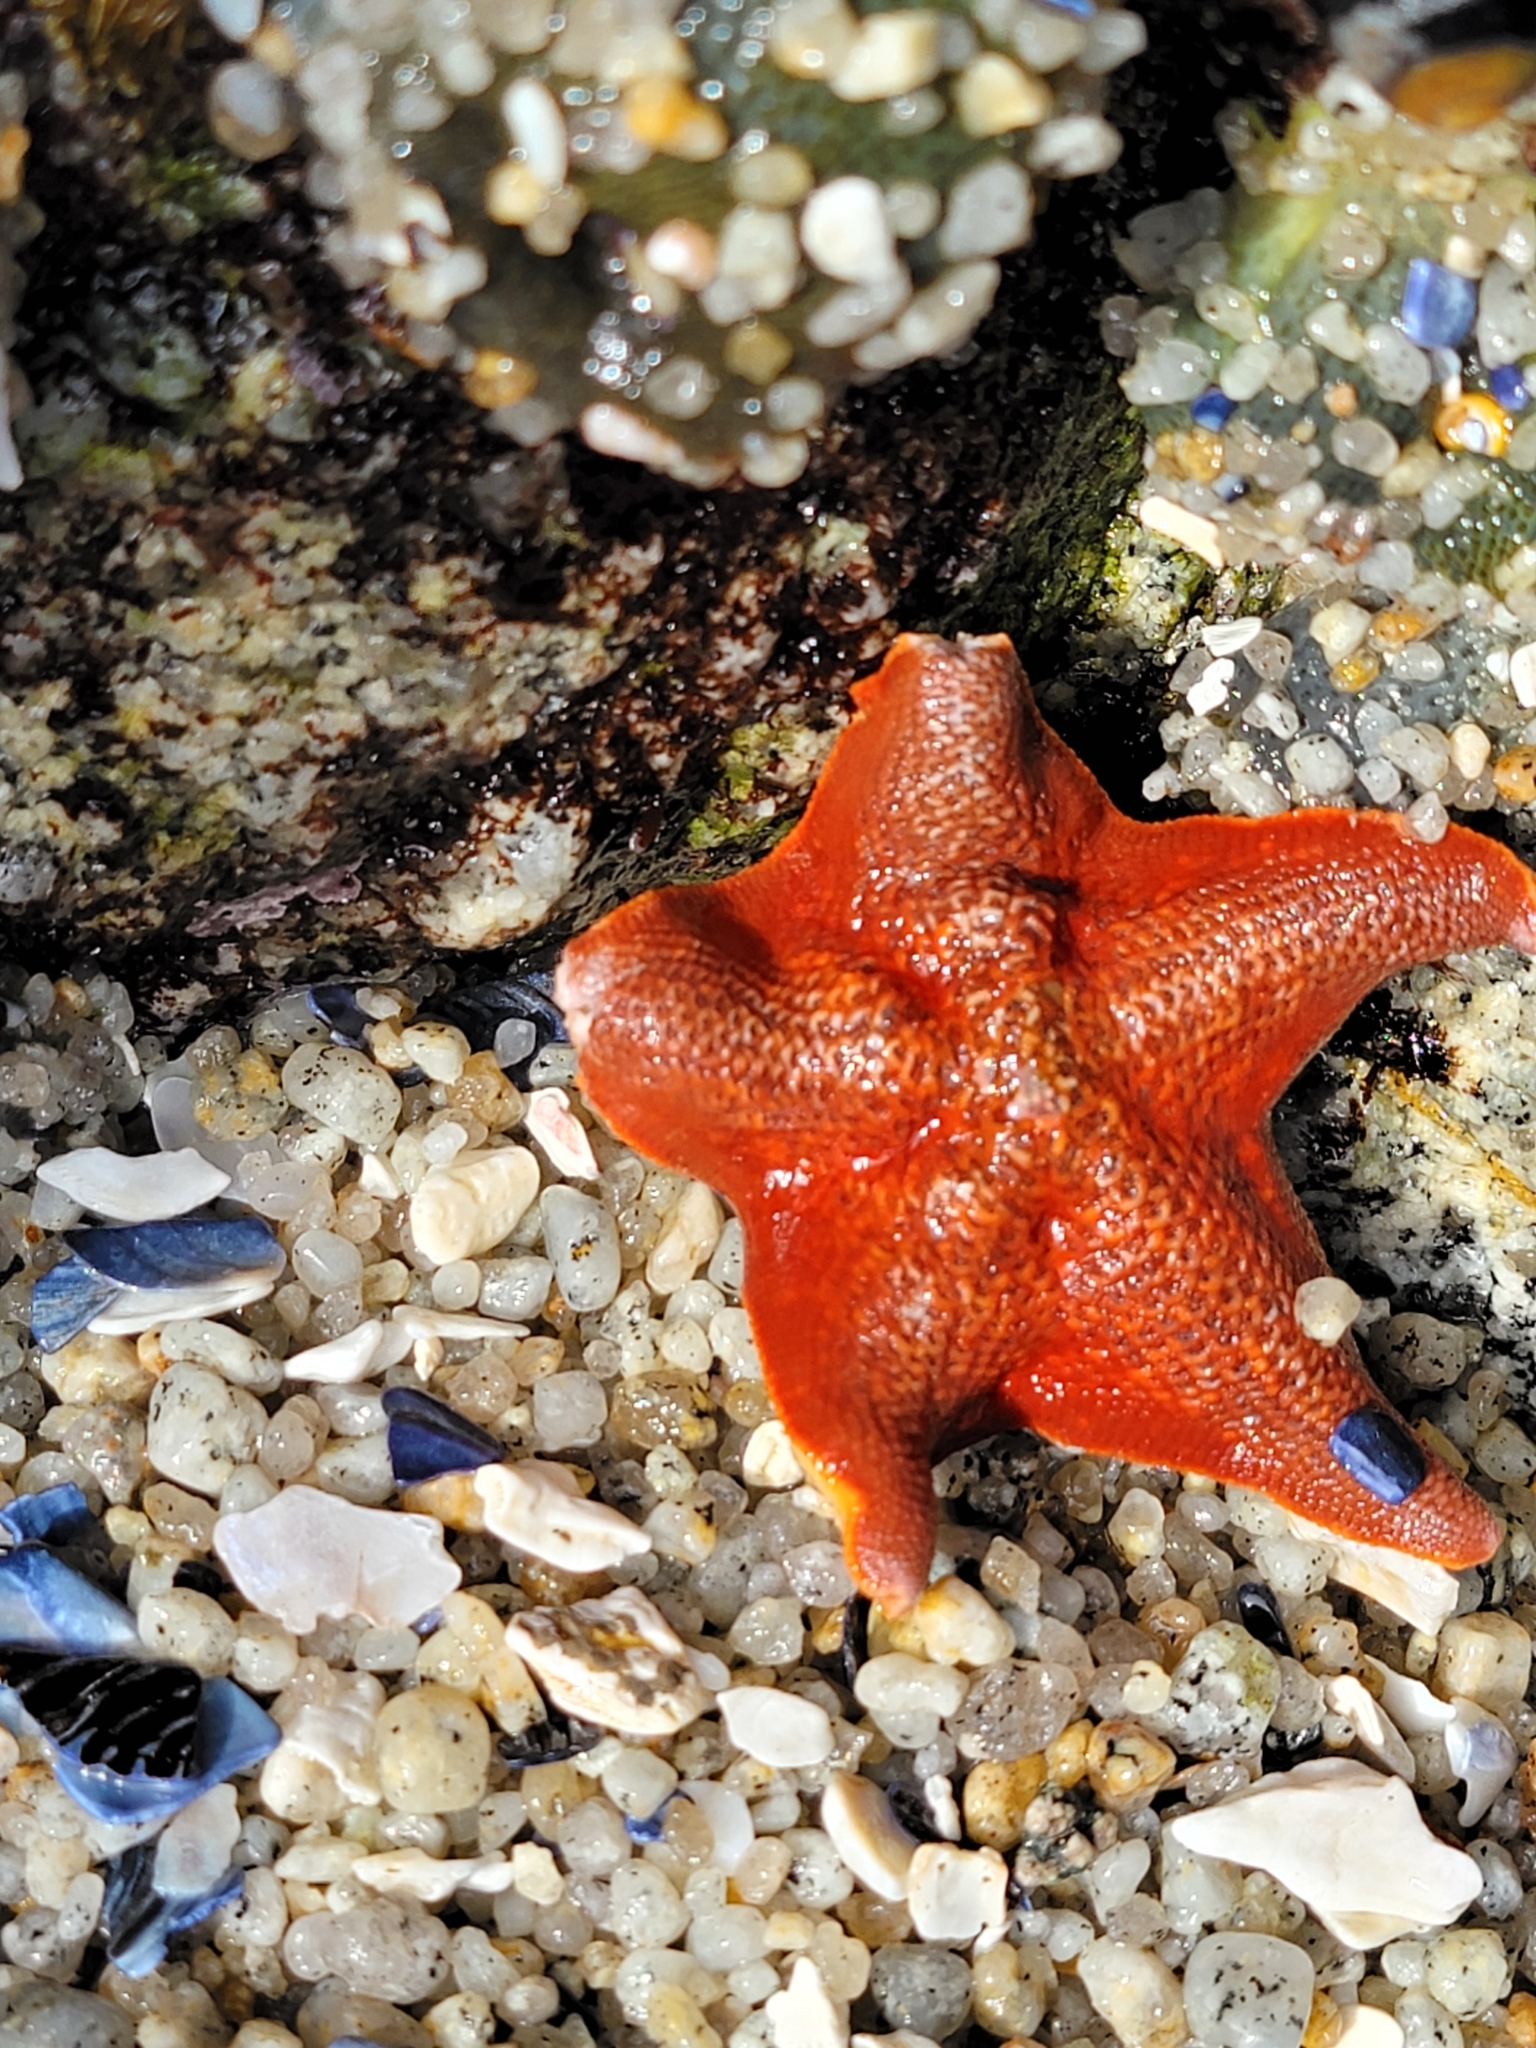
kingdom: Animalia
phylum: Echinodermata
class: Asteroidea
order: Valvatida
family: Asterinidae
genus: Patiria
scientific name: Patiria miniata
